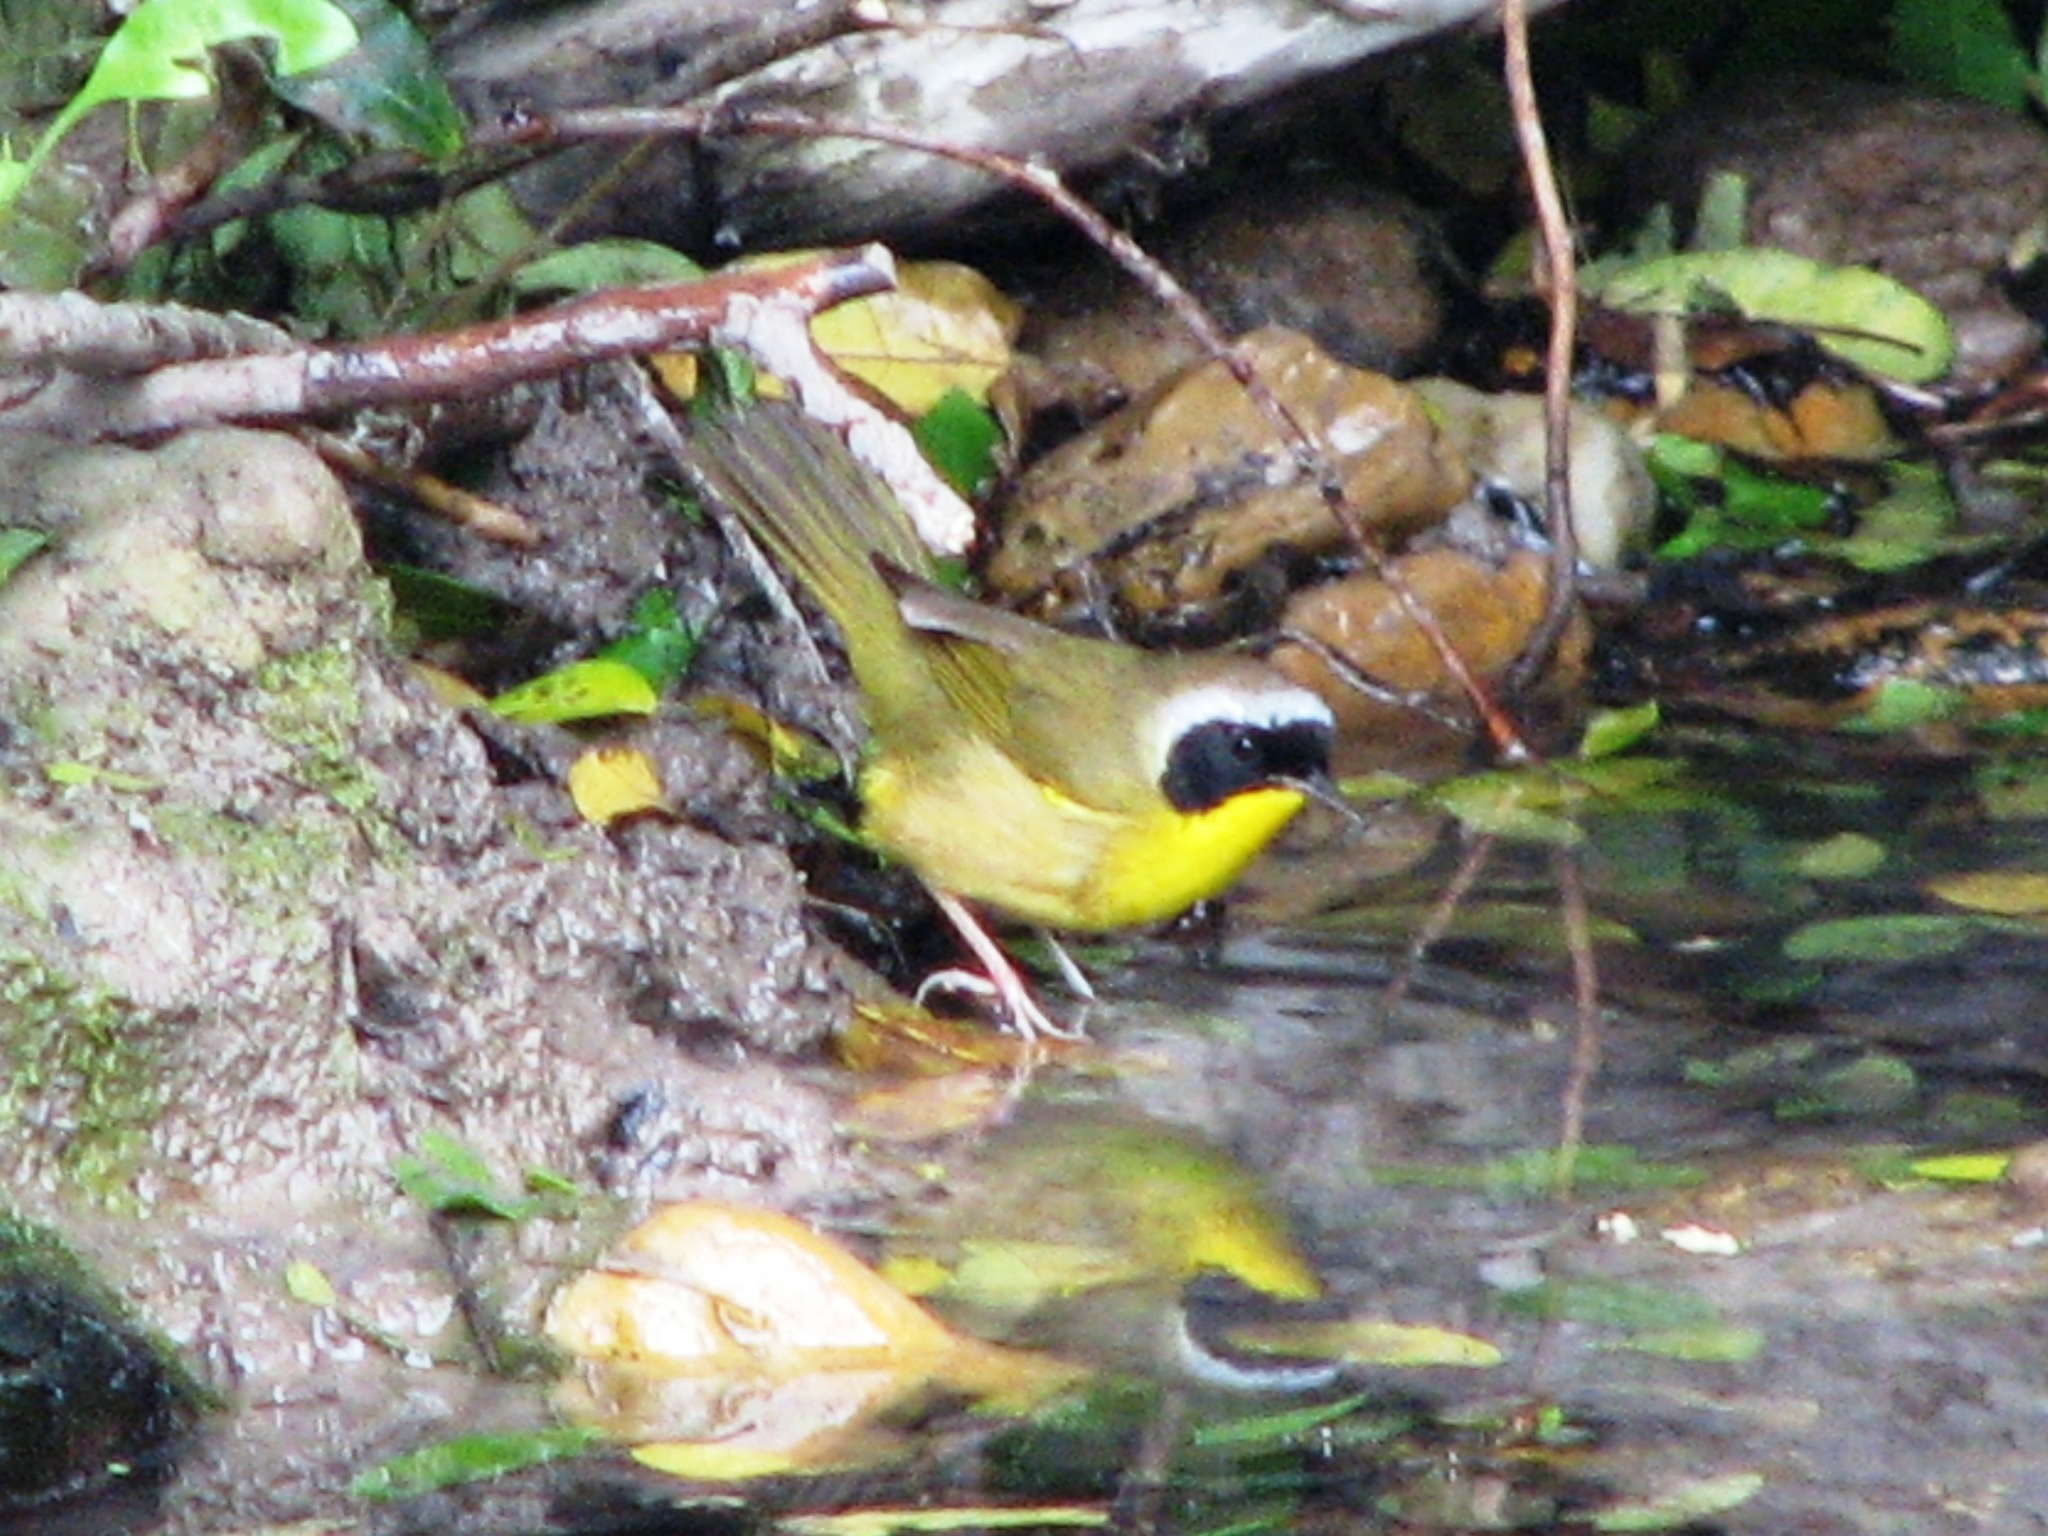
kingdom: Animalia
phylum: Chordata
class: Aves
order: Passeriformes
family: Parulidae
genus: Geothlypis
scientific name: Geothlypis trichas
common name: Common yellowthroat
